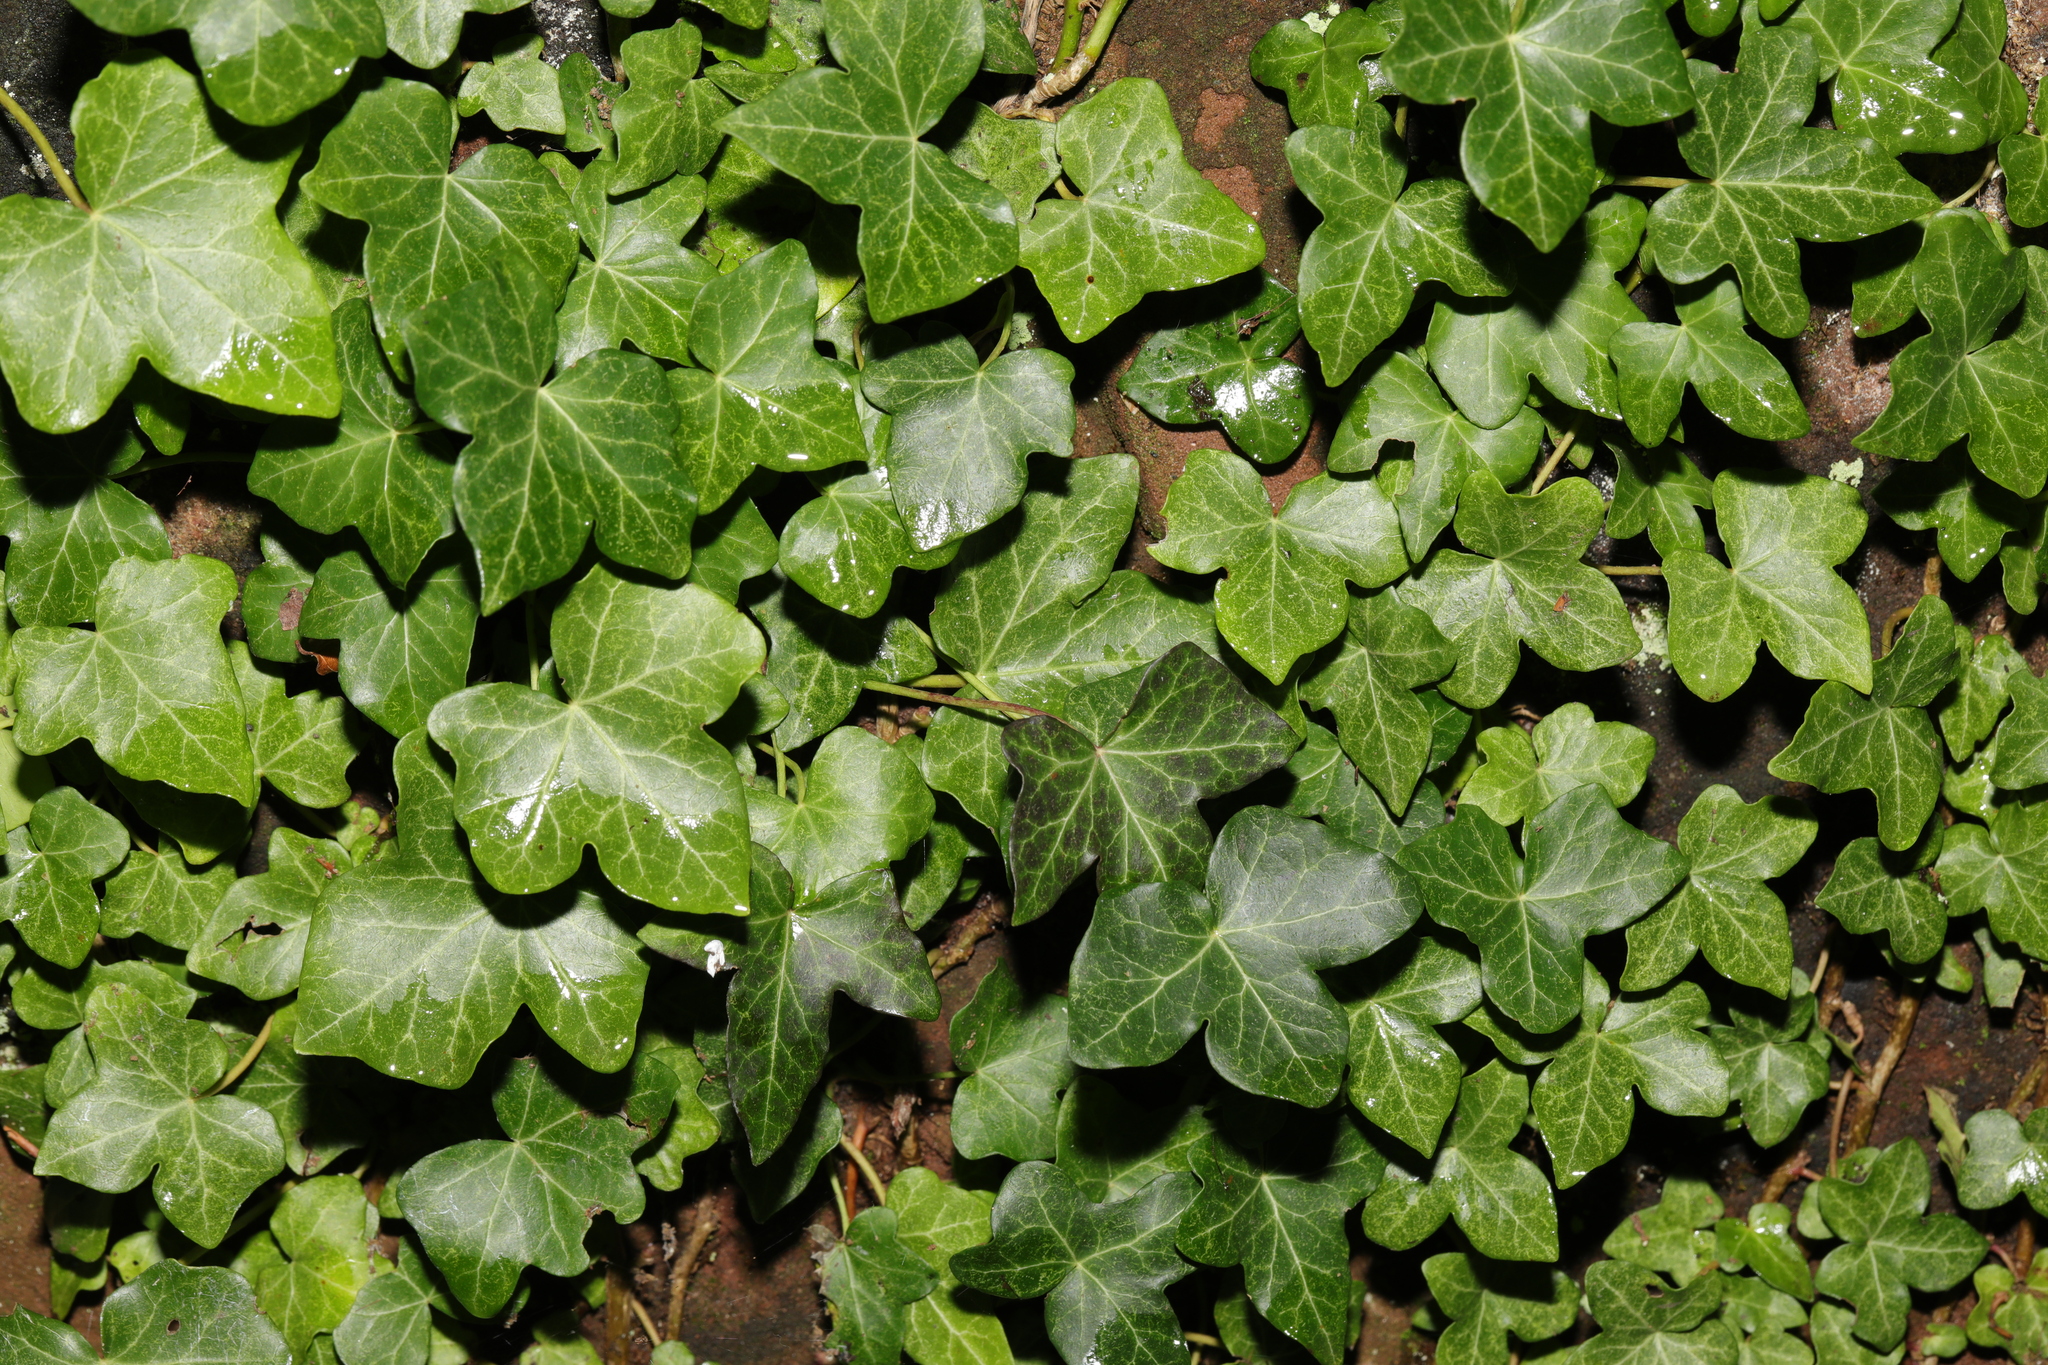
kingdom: Plantae
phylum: Tracheophyta
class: Magnoliopsida
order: Apiales
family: Araliaceae
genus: Hedera
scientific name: Hedera helix
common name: Ivy
